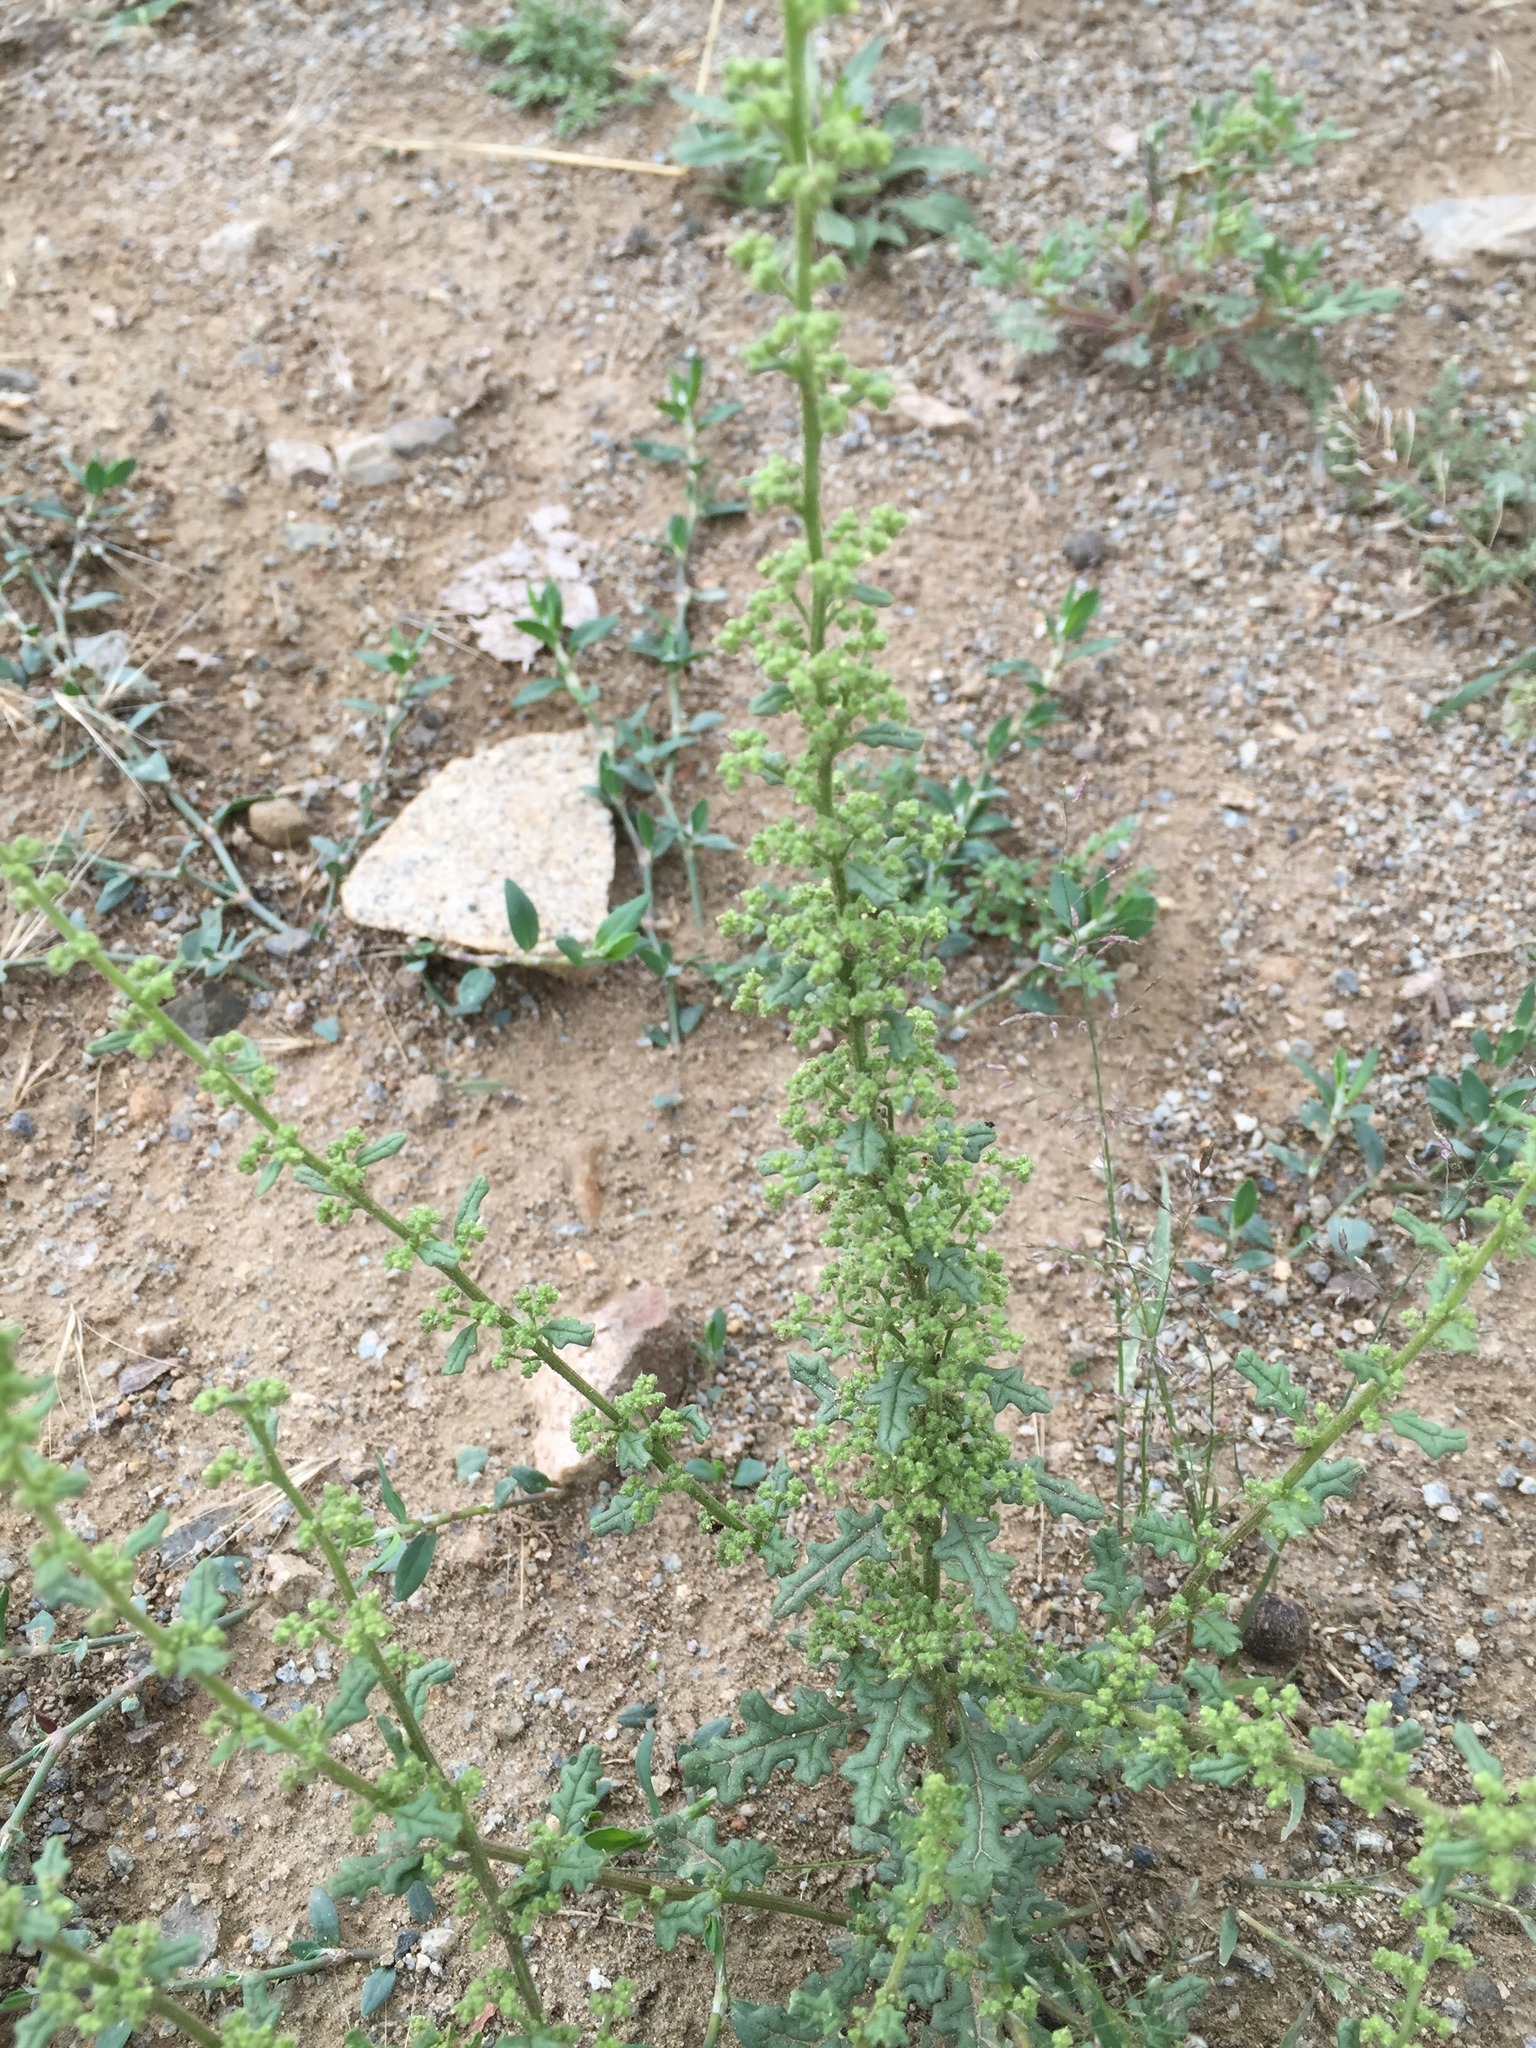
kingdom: Plantae
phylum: Tracheophyta
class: Magnoliopsida
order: Caryophyllales
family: Amaranthaceae
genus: Dysphania
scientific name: Dysphania botrys
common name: Feather-geranium
